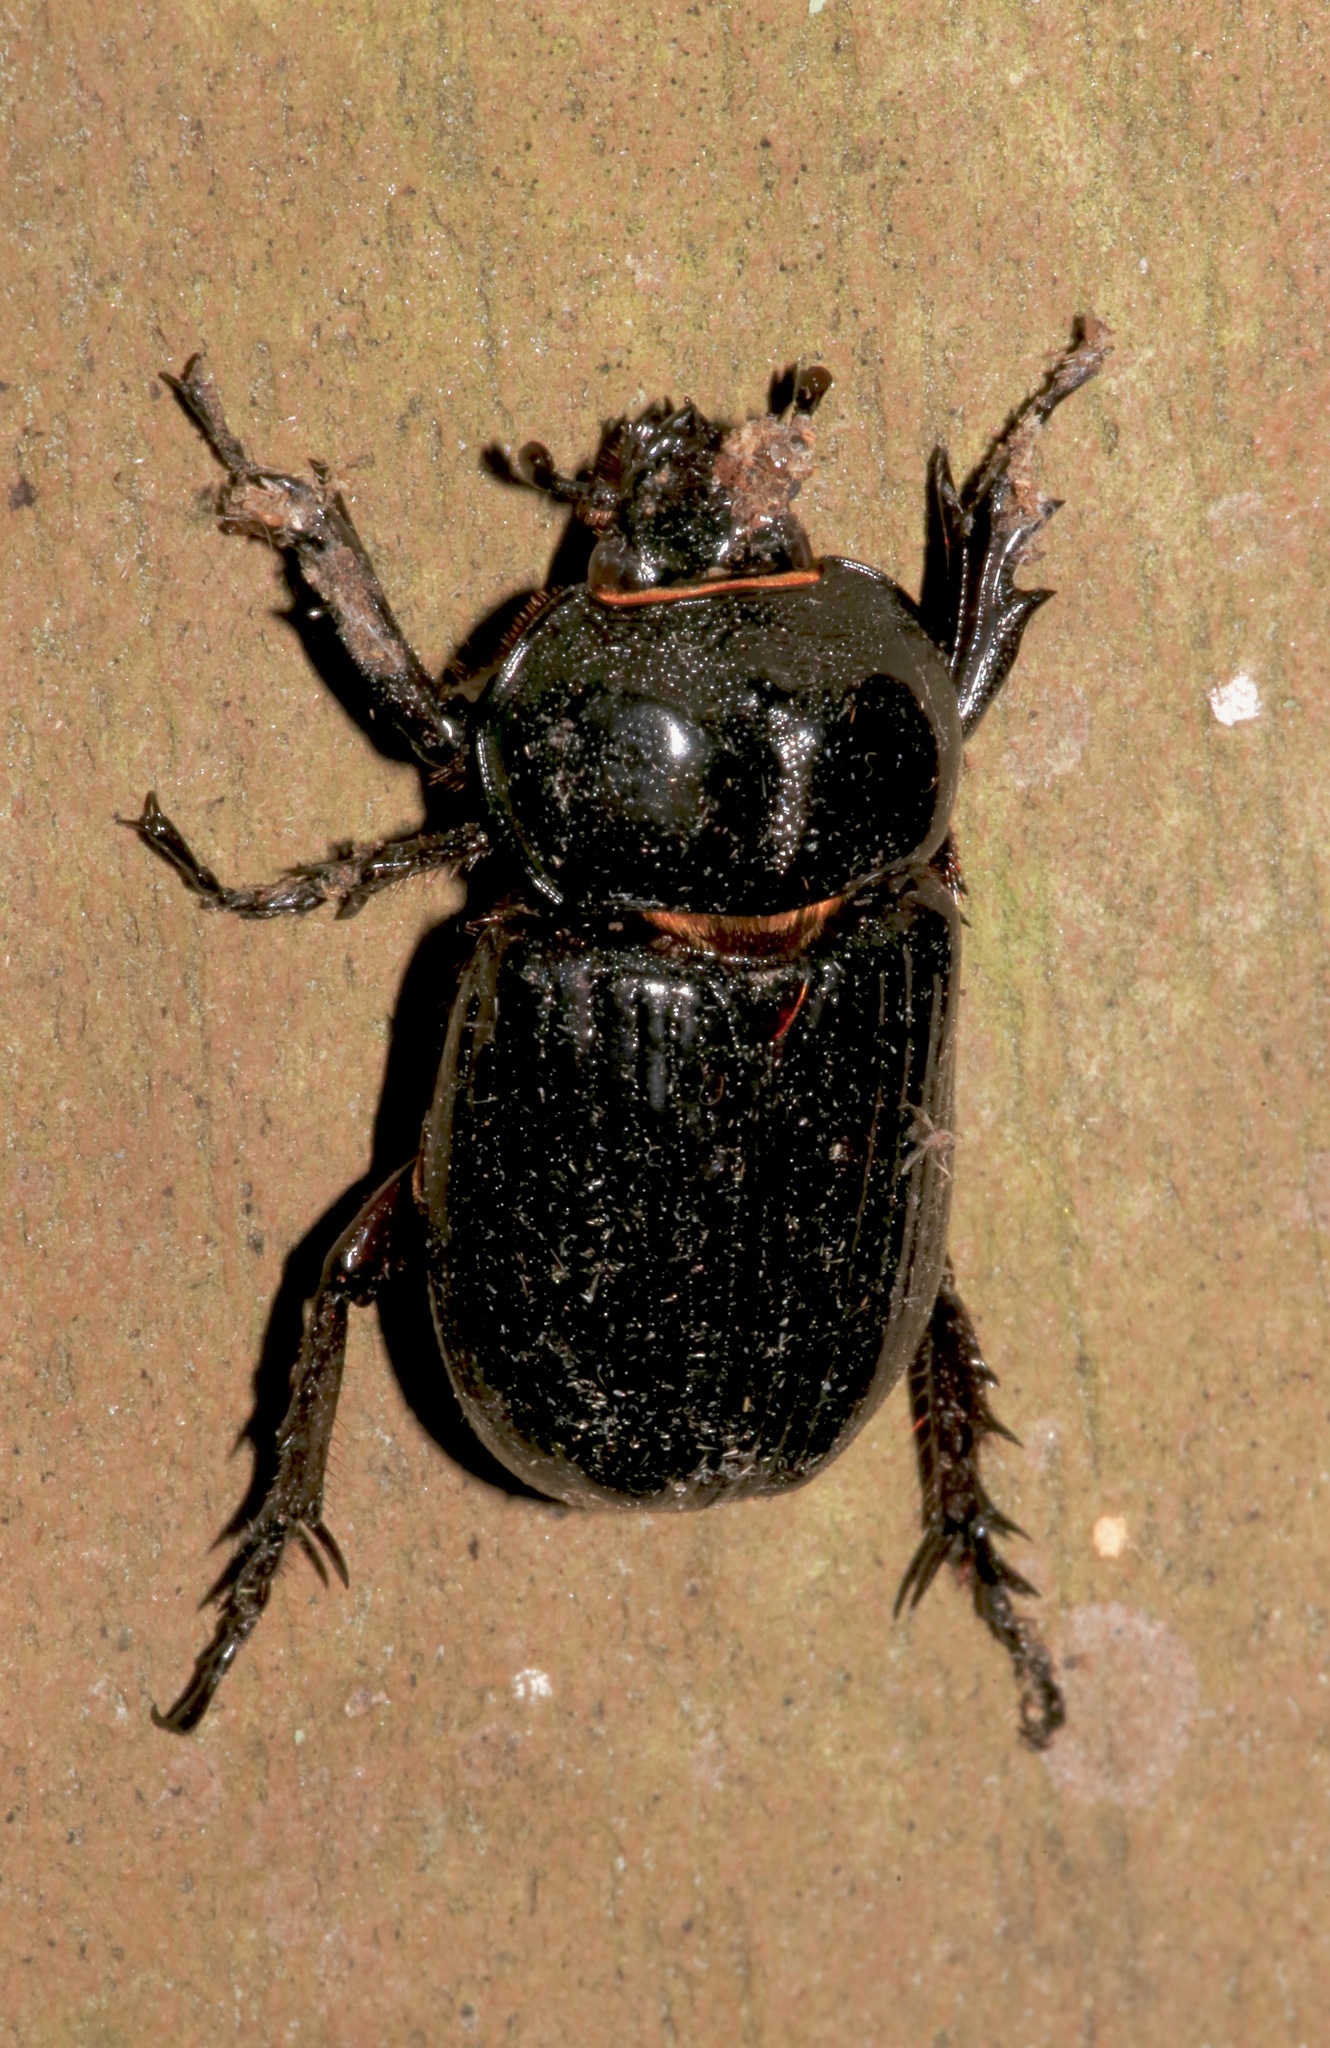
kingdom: Animalia
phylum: Arthropoda
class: Insecta
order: Coleoptera
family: Scarabaeidae
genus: Phileurus
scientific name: Phileurus truncatus
